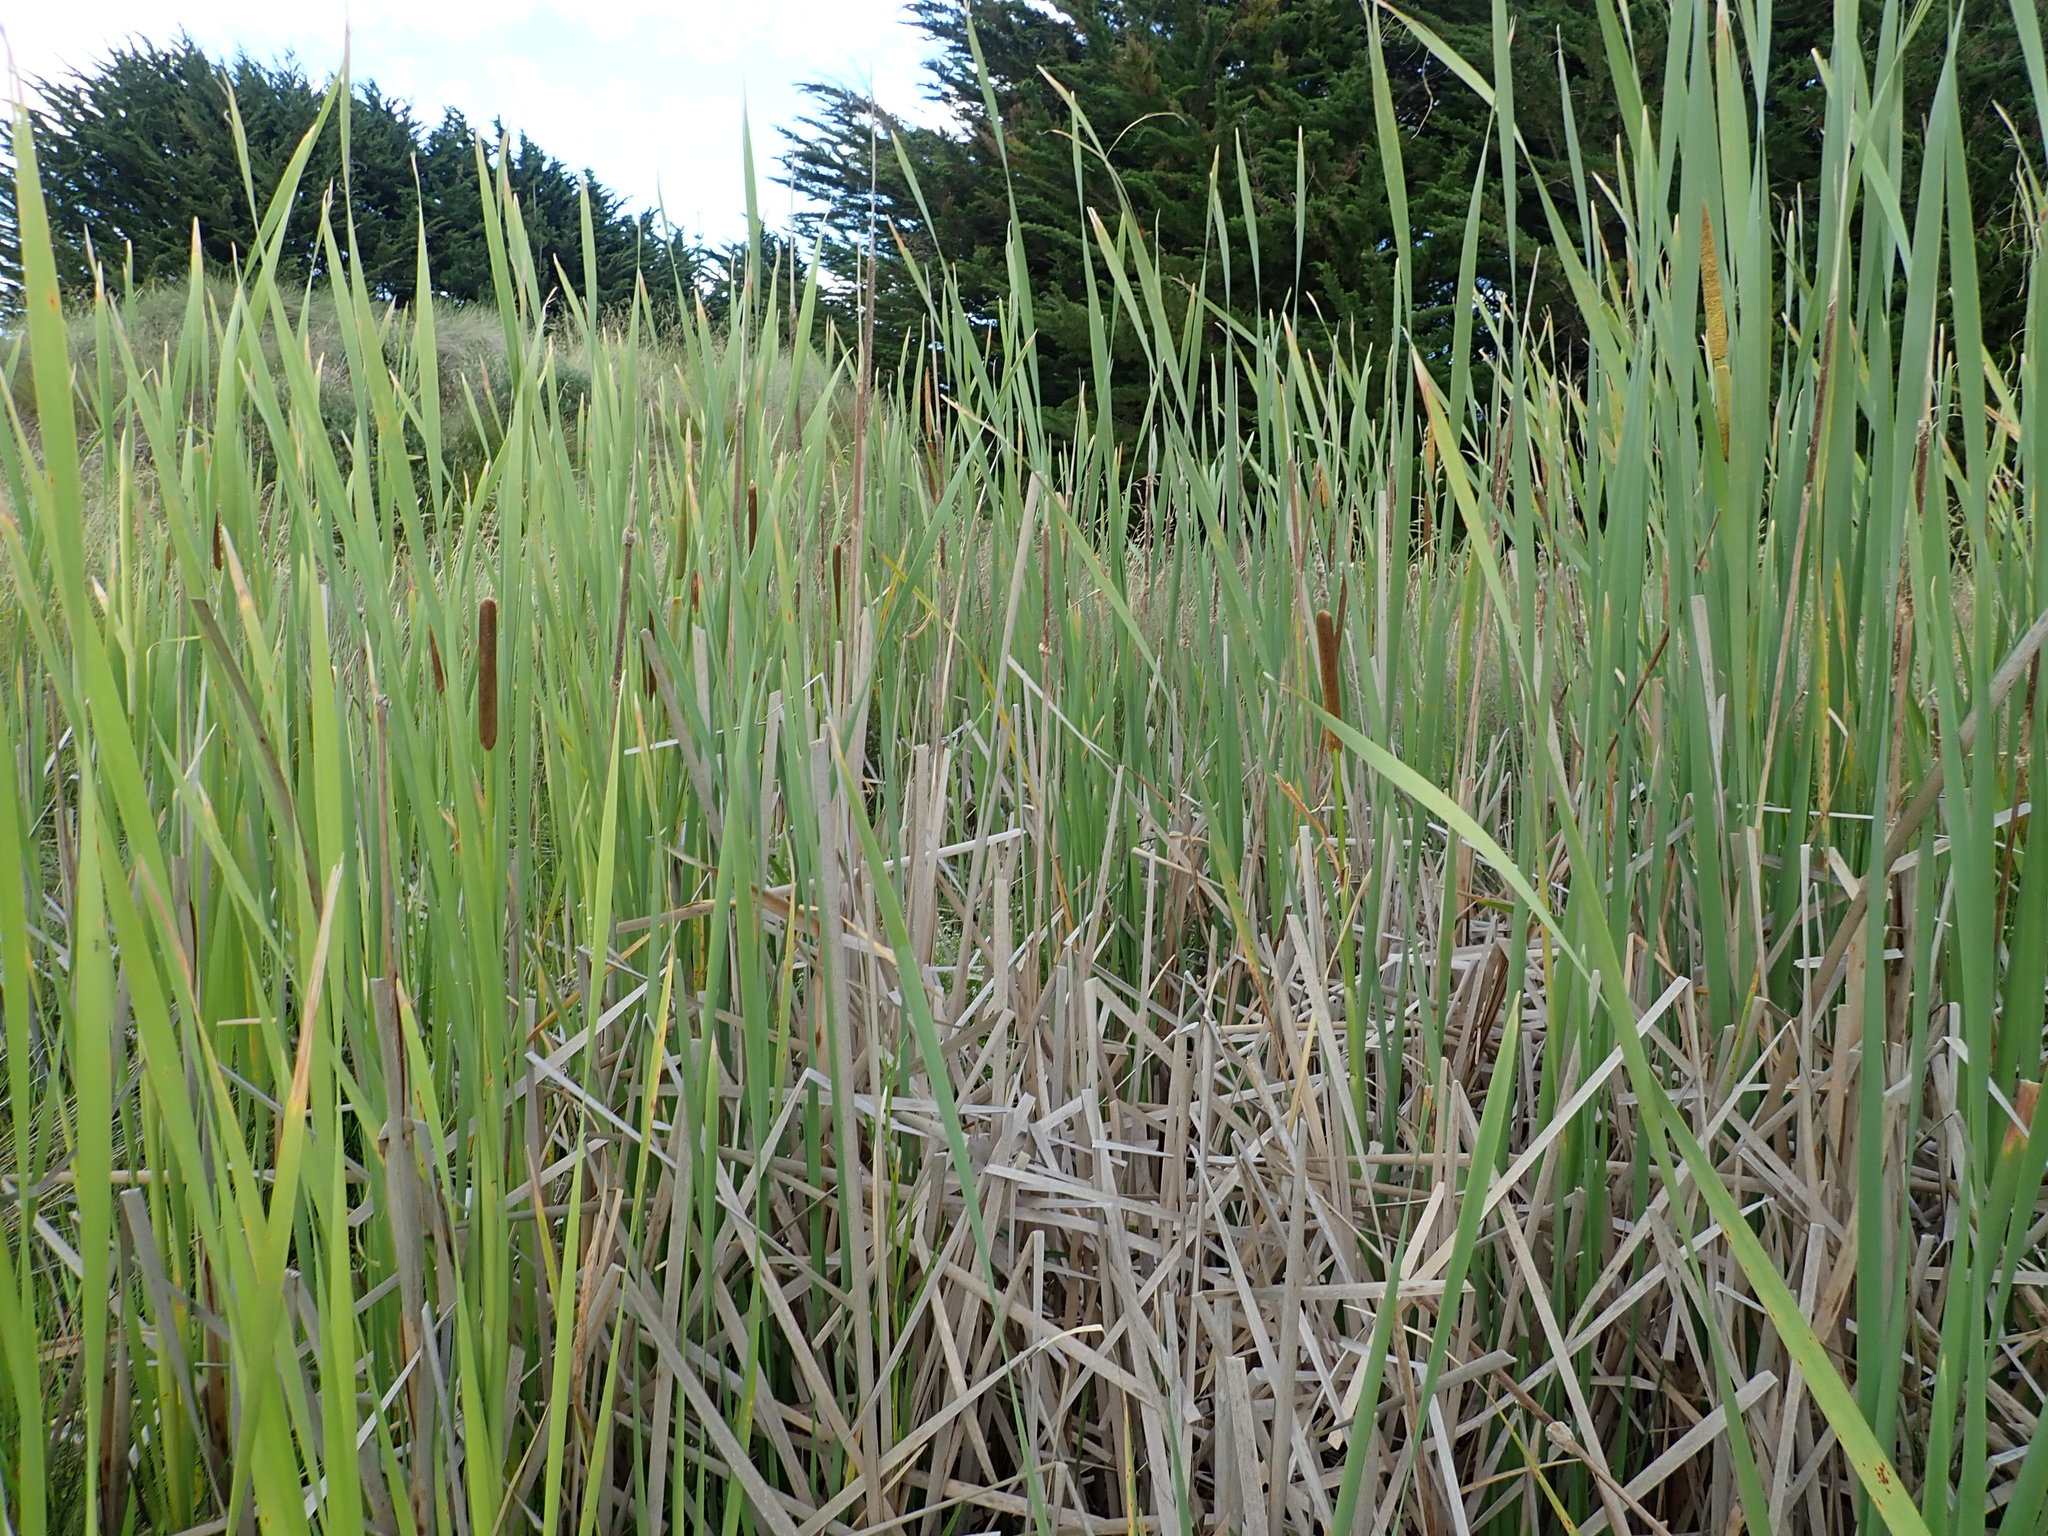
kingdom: Plantae
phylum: Tracheophyta
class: Liliopsida
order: Poales
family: Typhaceae
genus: Typha
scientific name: Typha orientalis
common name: Bullrush
